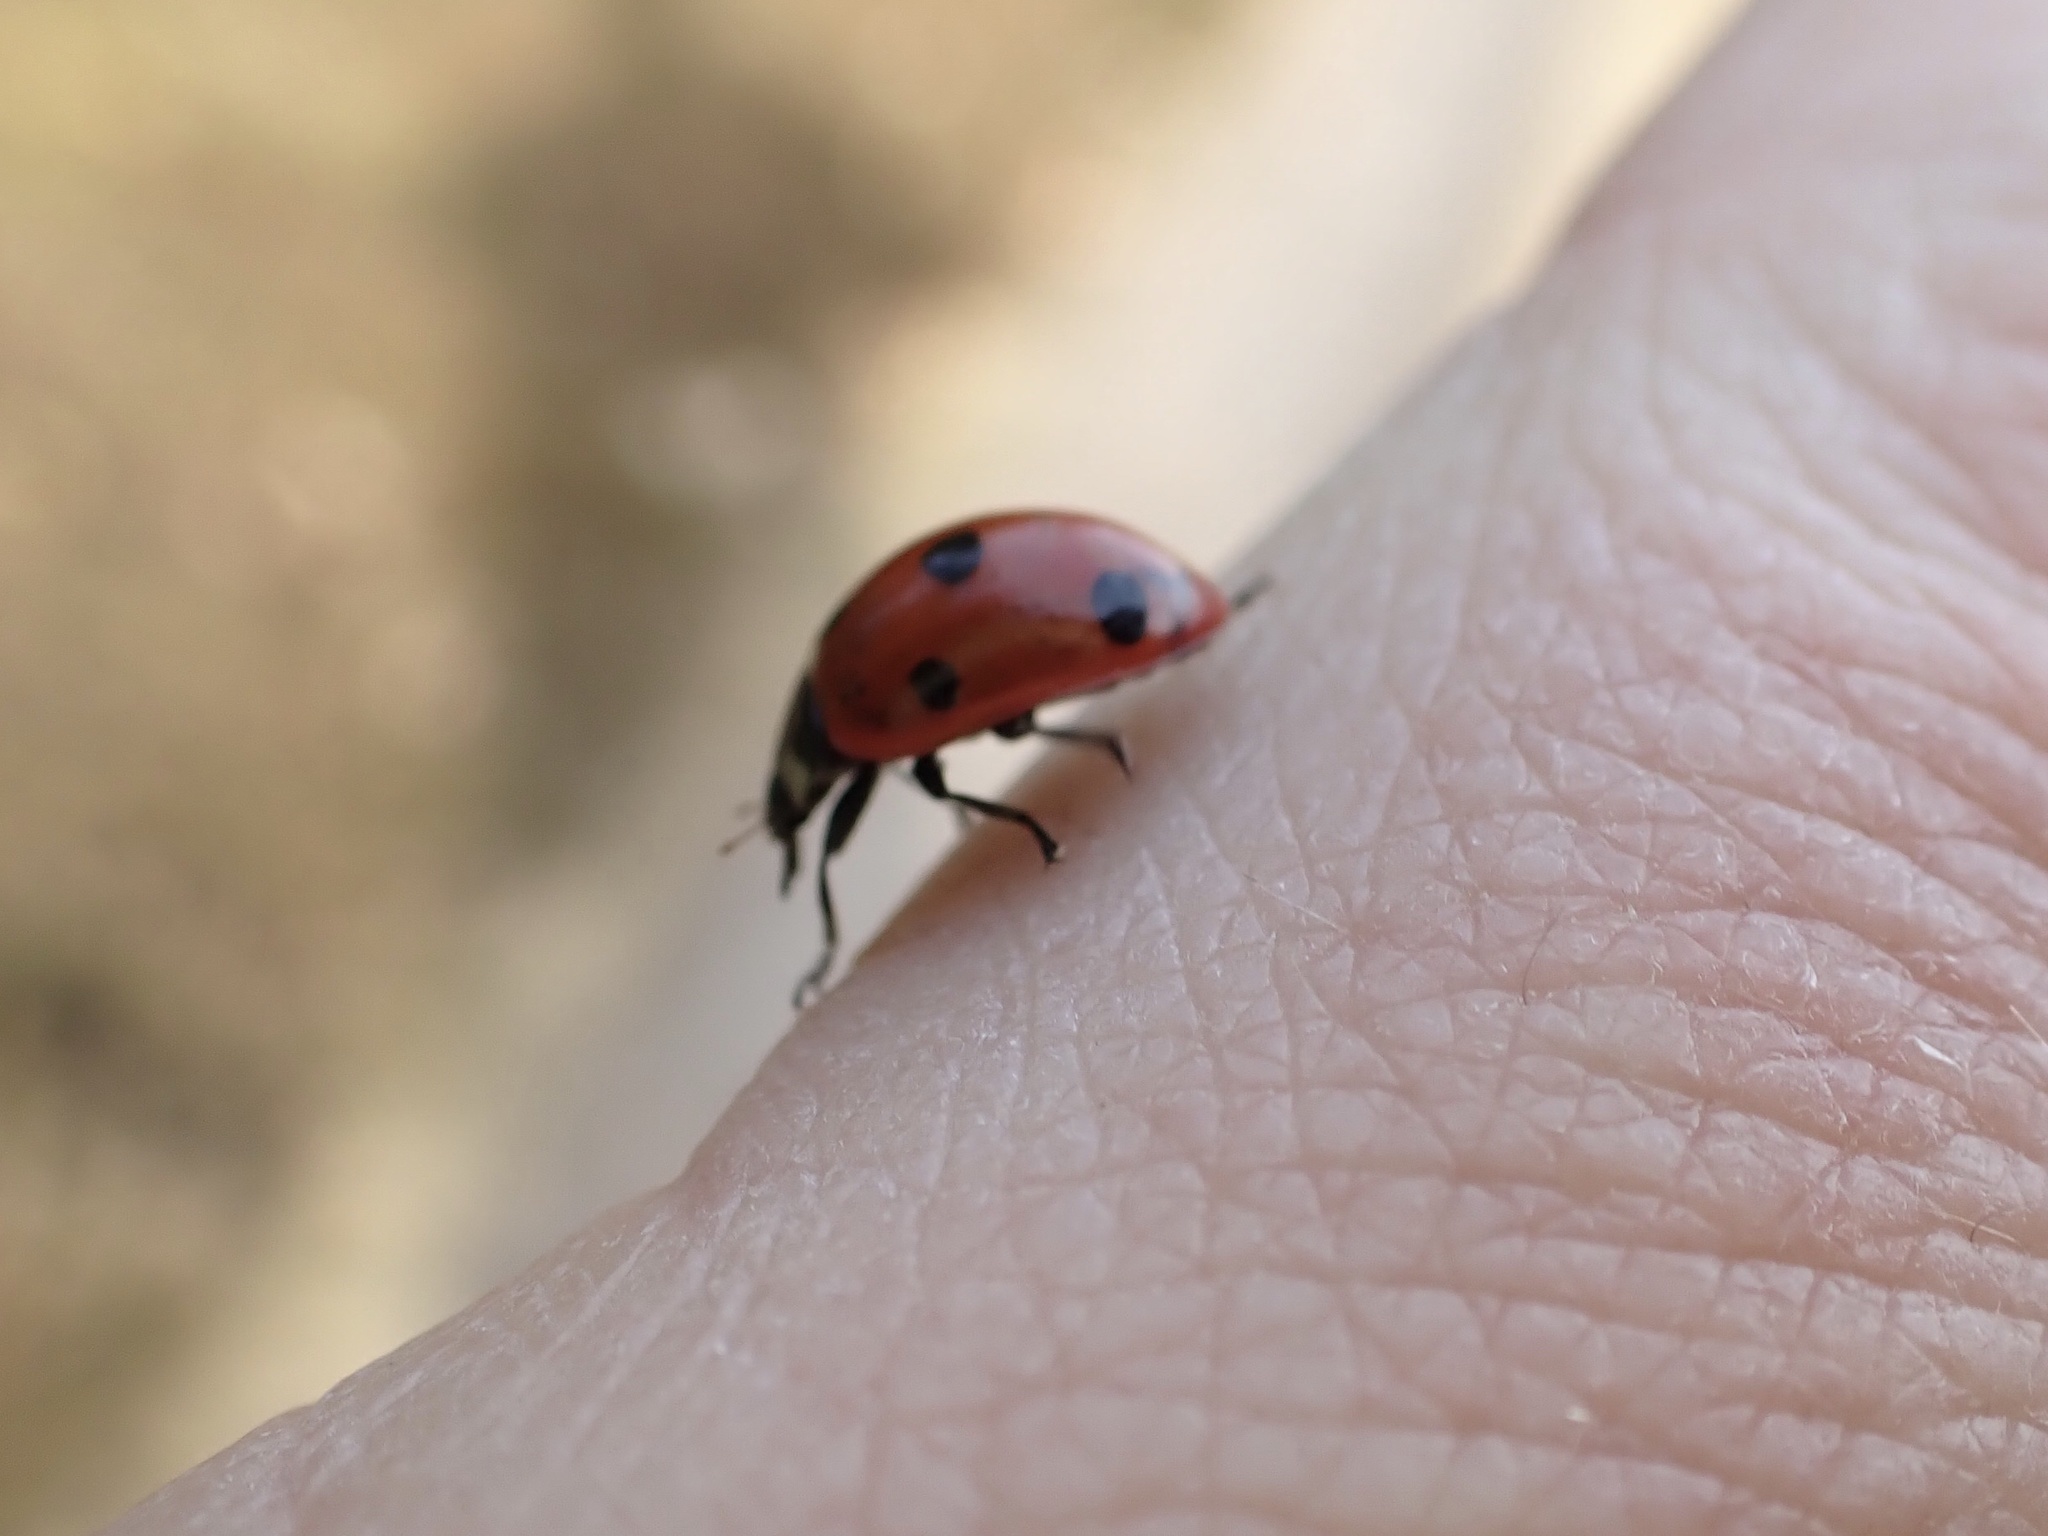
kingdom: Animalia
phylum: Arthropoda
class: Insecta
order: Coleoptera
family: Coccinellidae
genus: Coccinella
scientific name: Coccinella septempunctata
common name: Sevenspotted lady beetle
